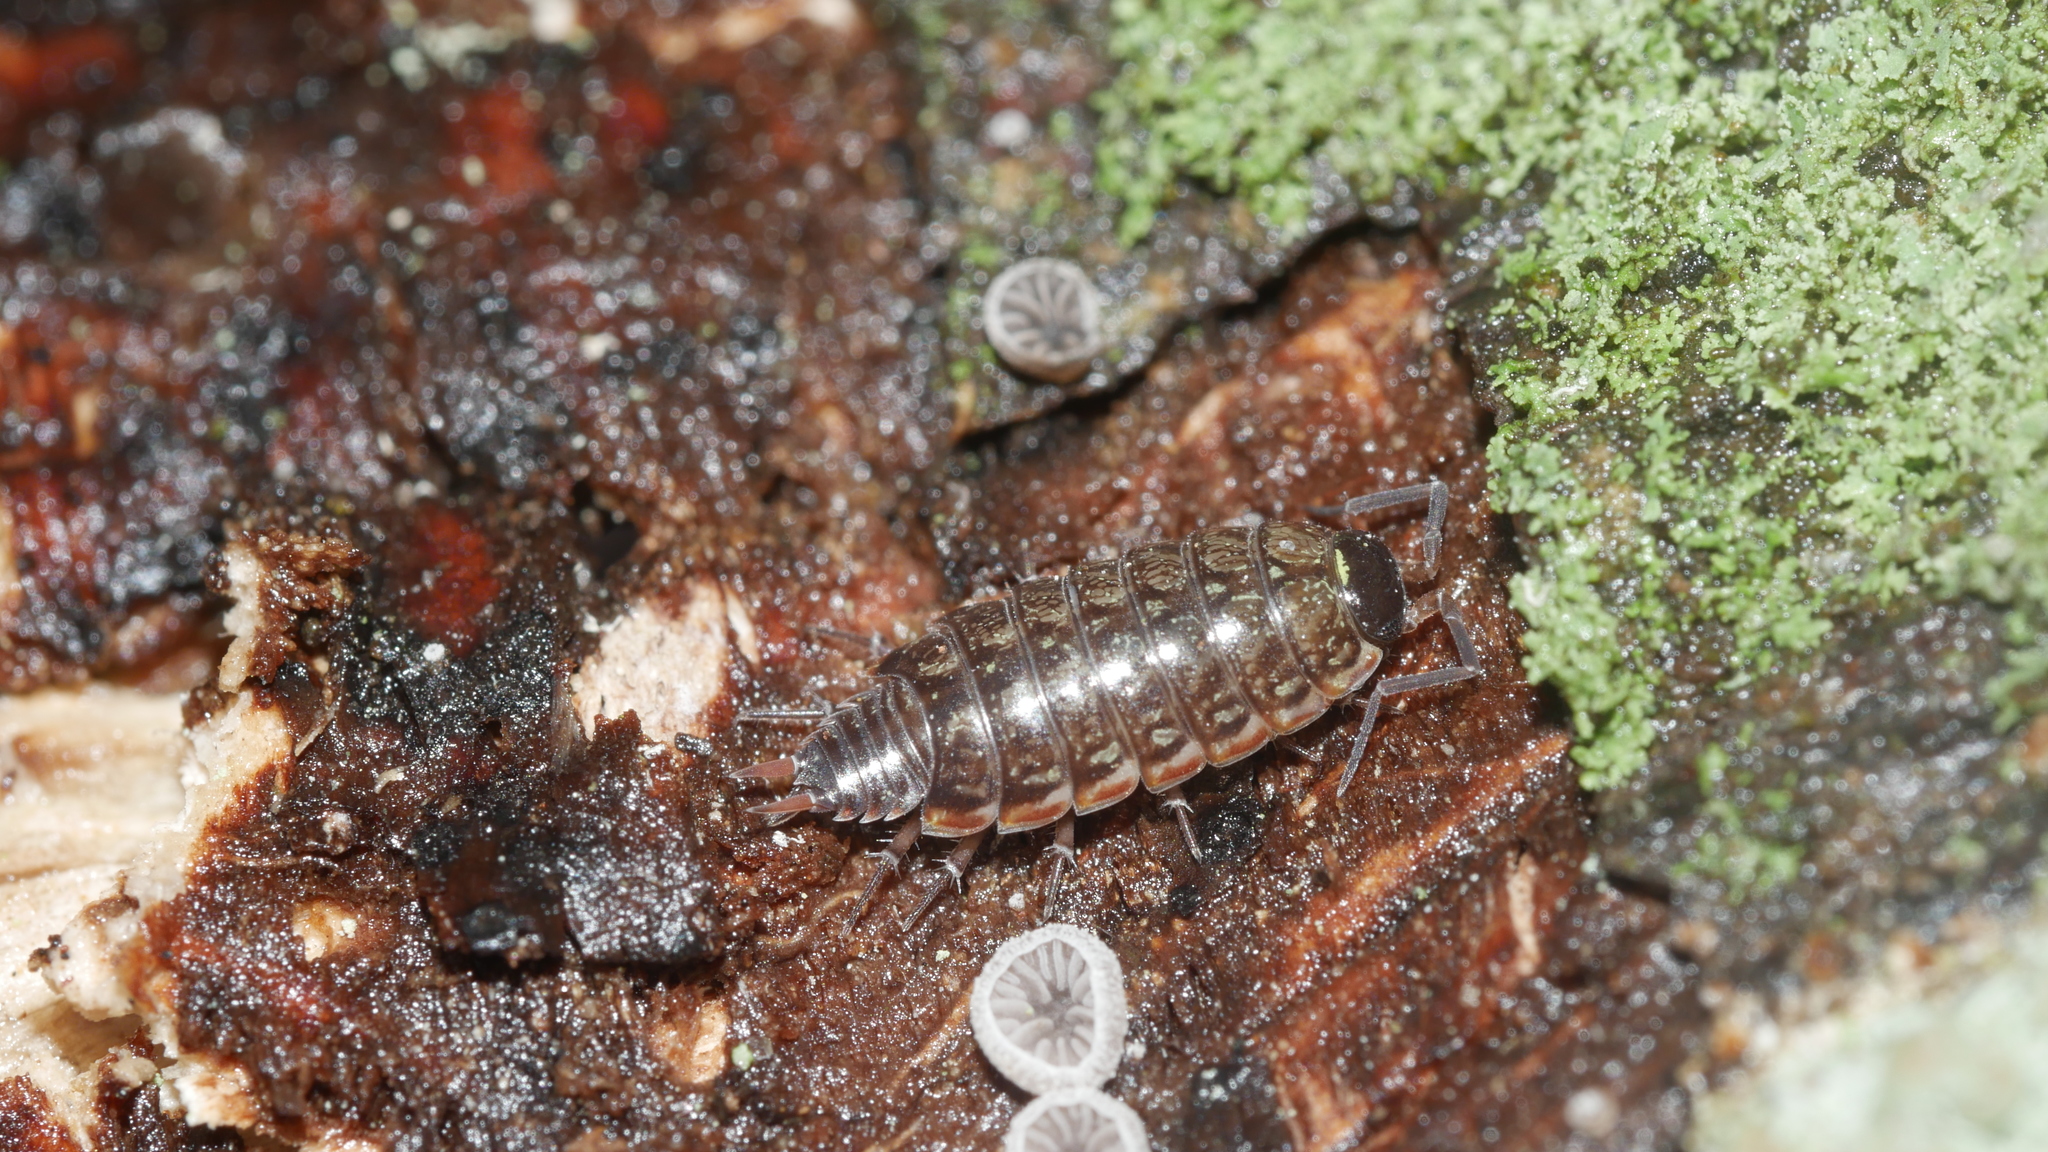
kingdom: Animalia
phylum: Arthropoda
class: Malacostraca
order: Isopoda
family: Philosciidae
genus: Philoscia
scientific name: Philoscia muscorum
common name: Common striped woodlouse
